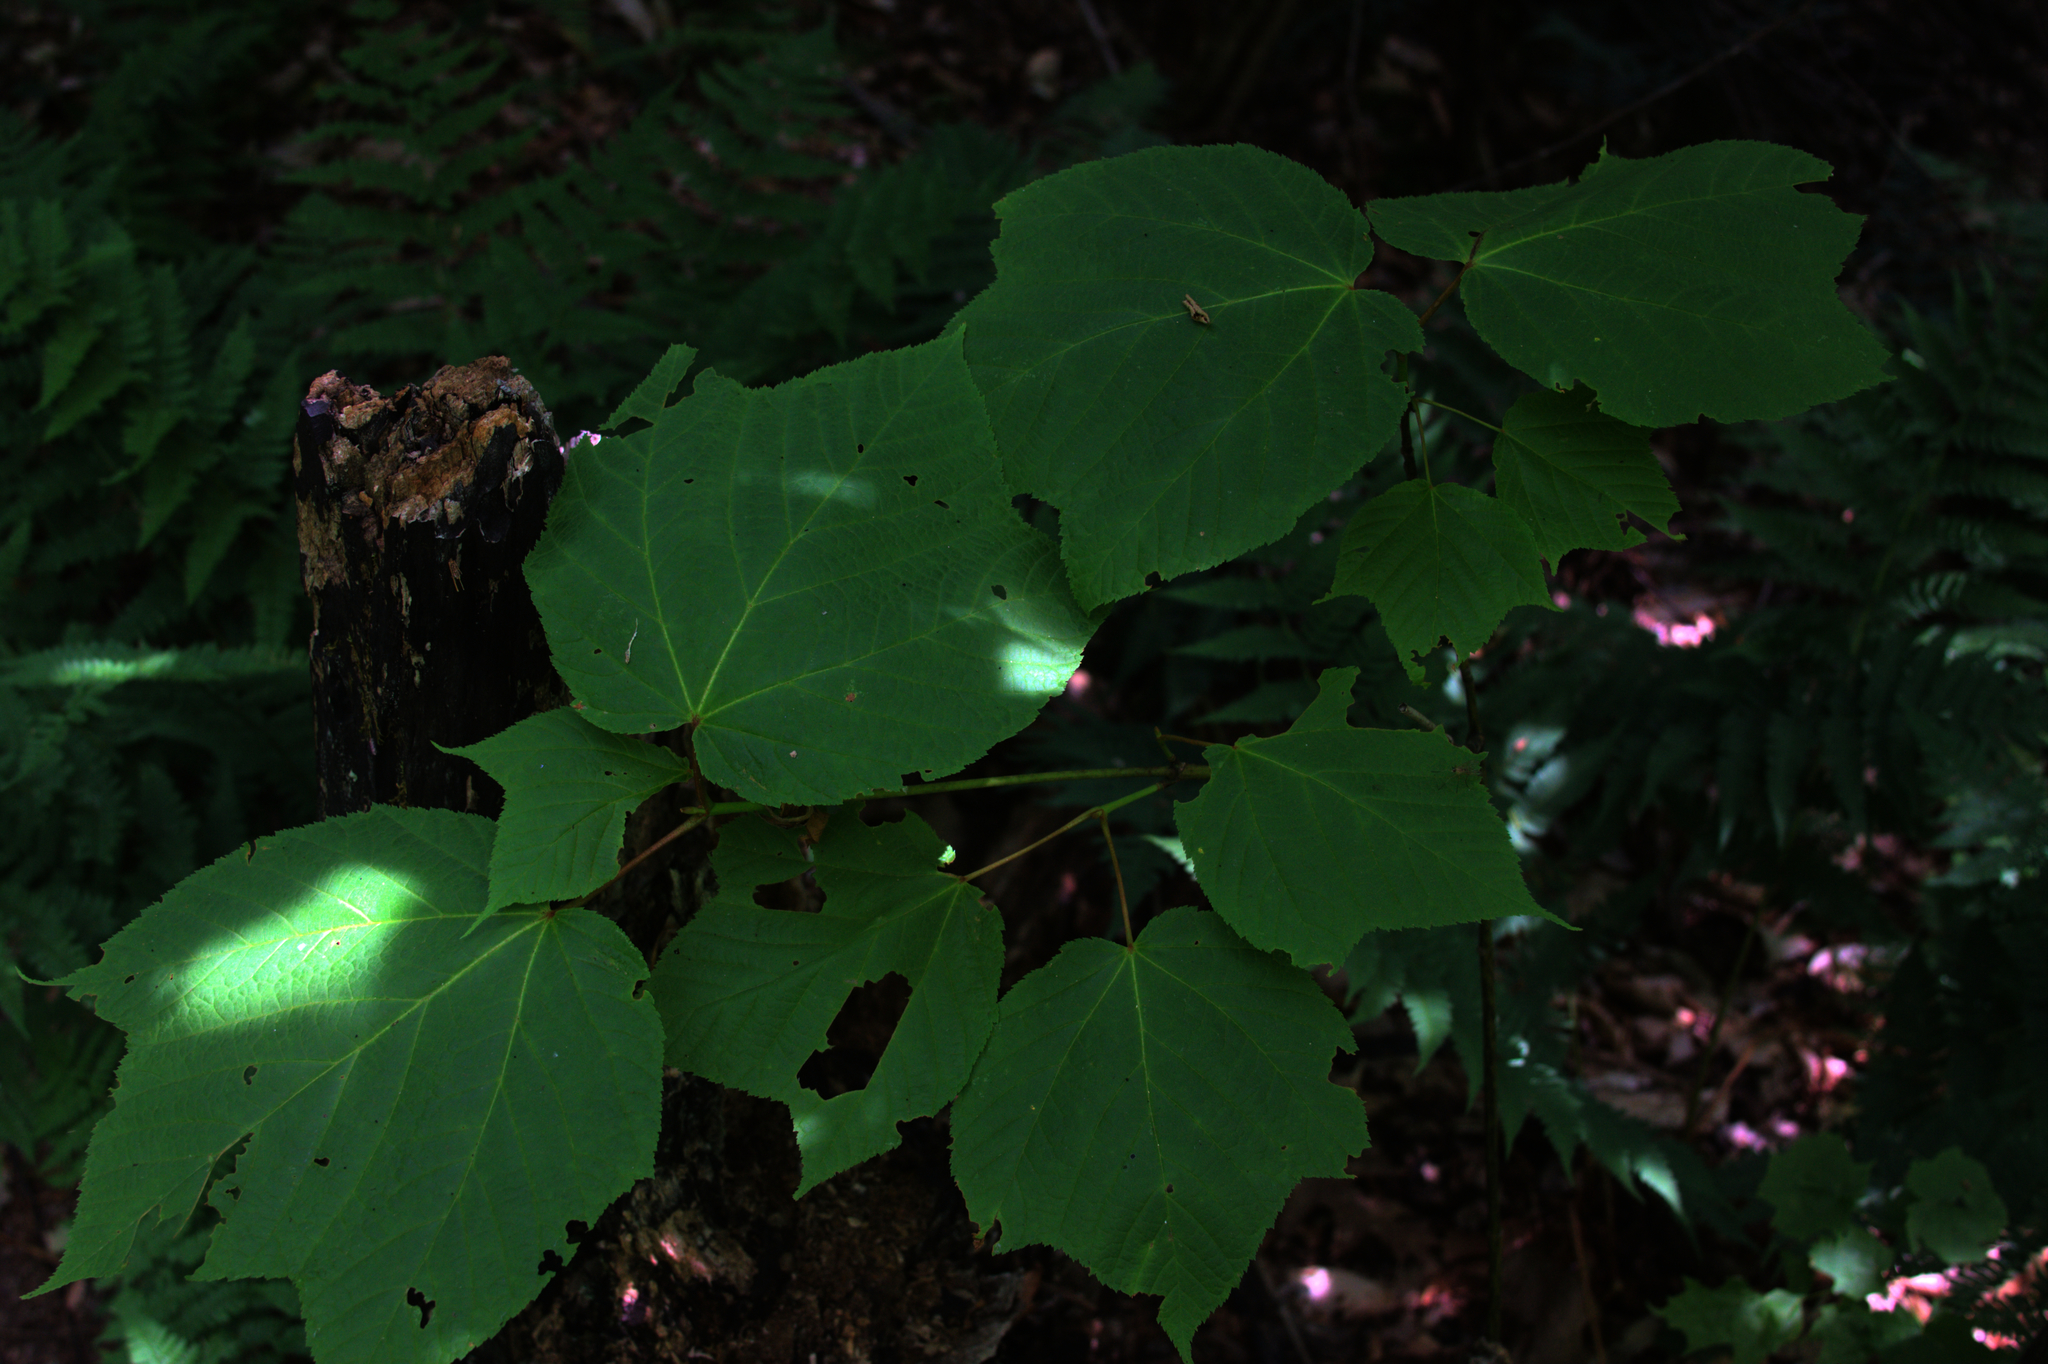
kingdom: Plantae
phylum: Tracheophyta
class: Magnoliopsida
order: Sapindales
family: Sapindaceae
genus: Acer
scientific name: Acer pensylvanicum
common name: Moosewood
